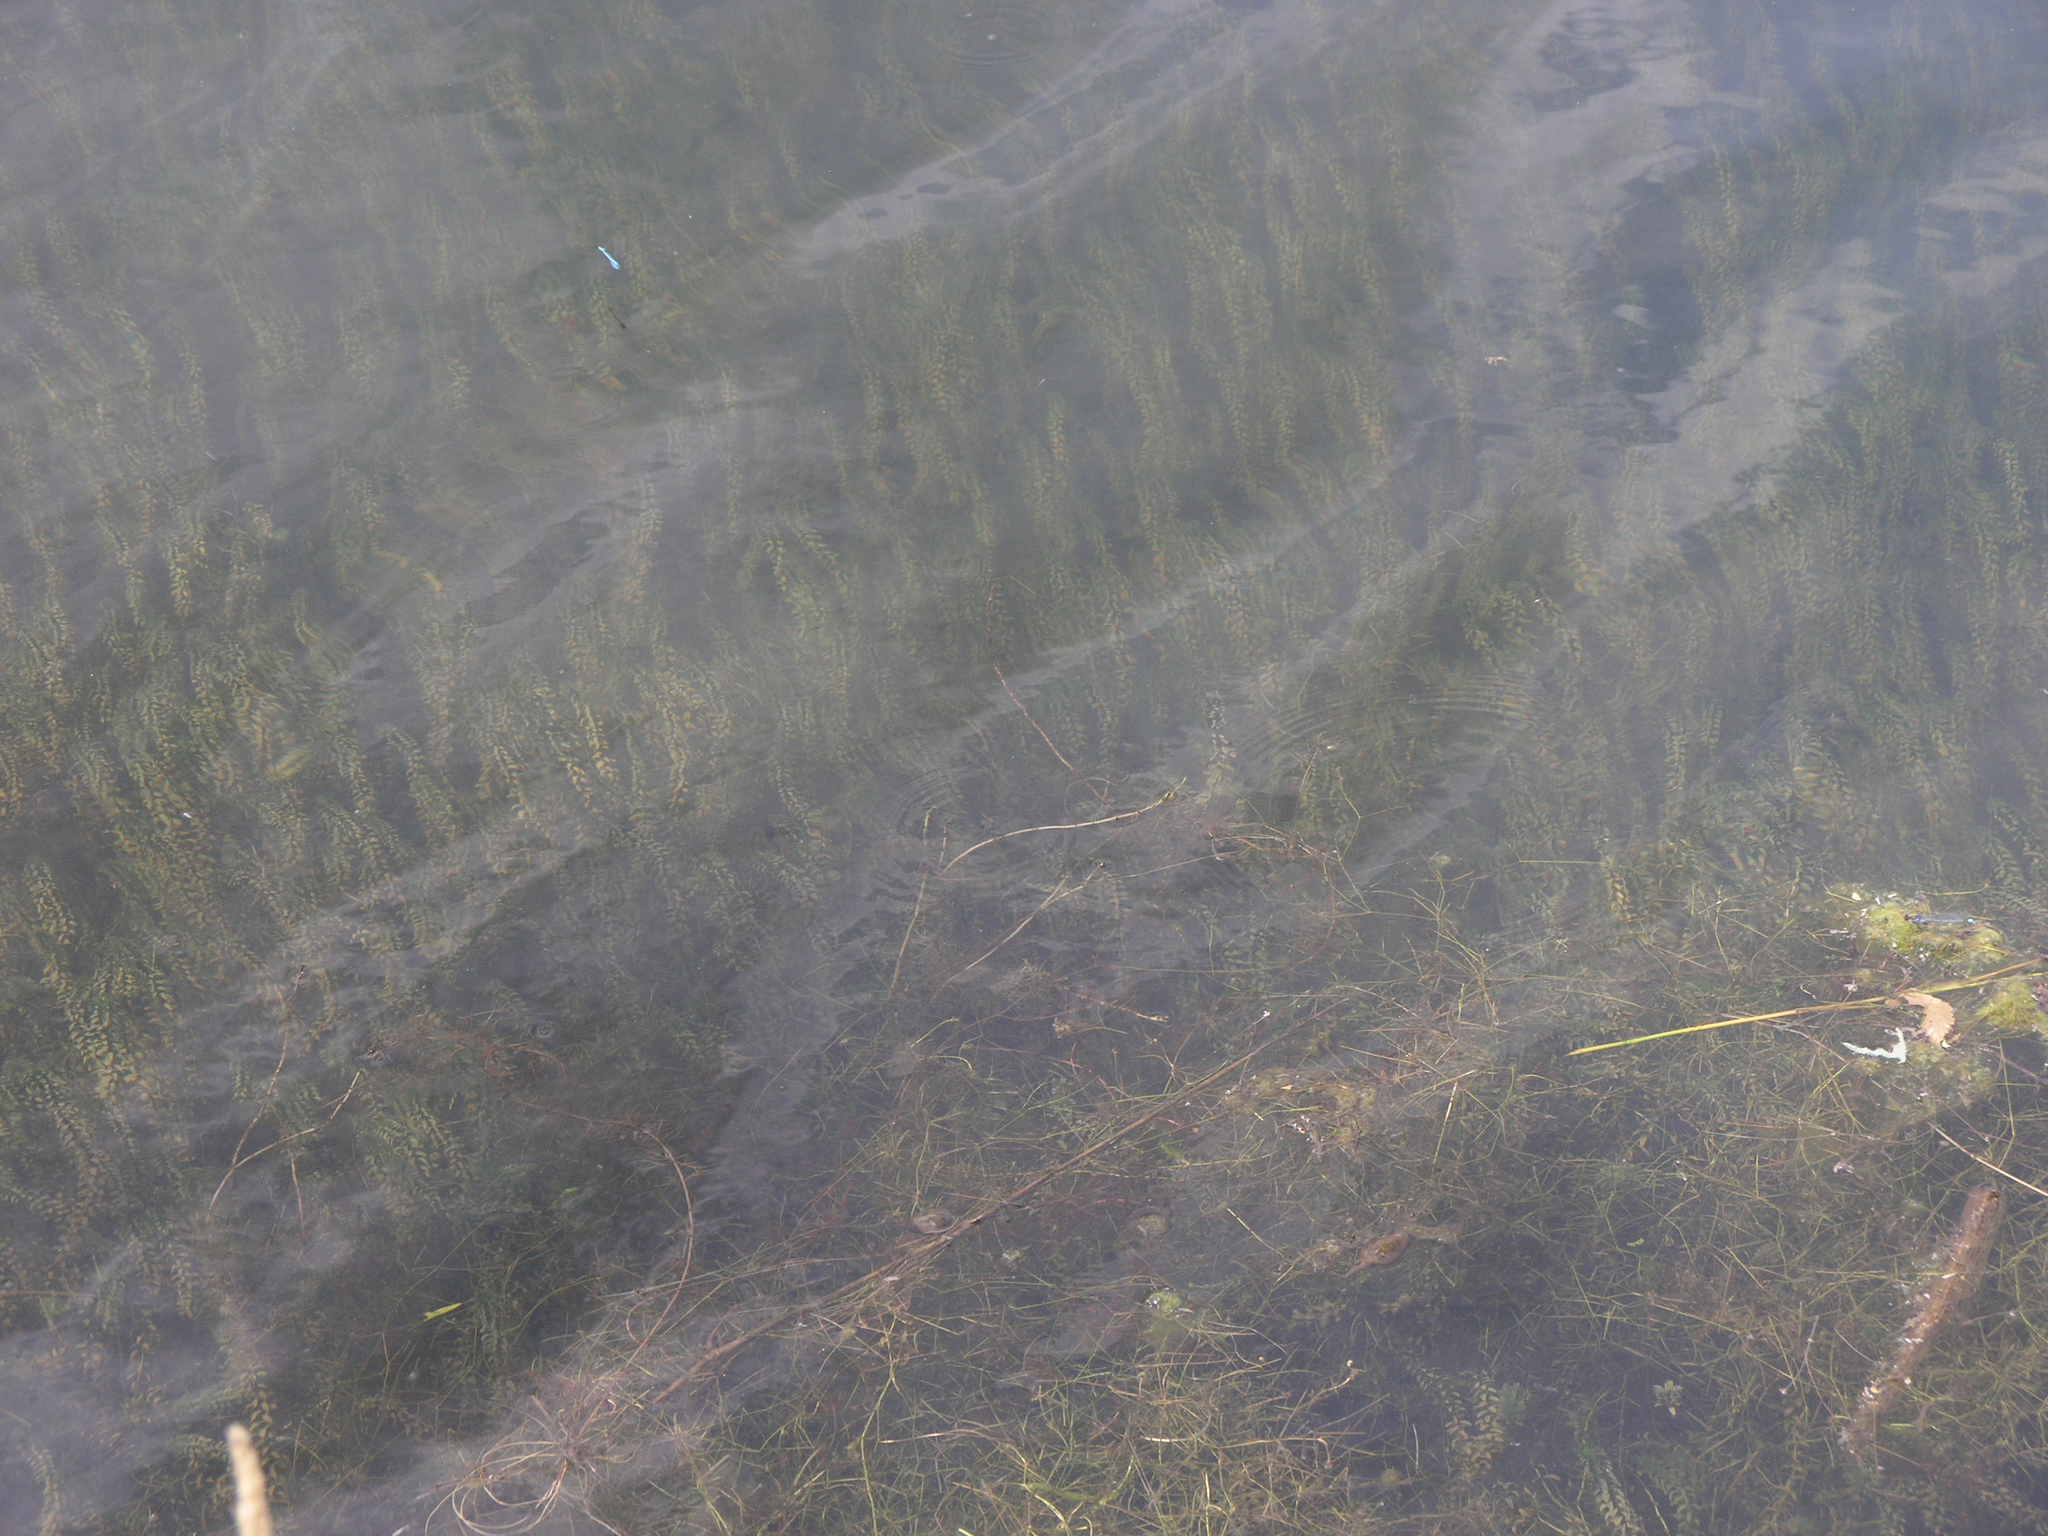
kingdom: Plantae
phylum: Tracheophyta
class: Liliopsida
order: Alismatales
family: Hydrocharitaceae
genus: Elodea
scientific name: Elodea canadensis
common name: Canadian waterweed
